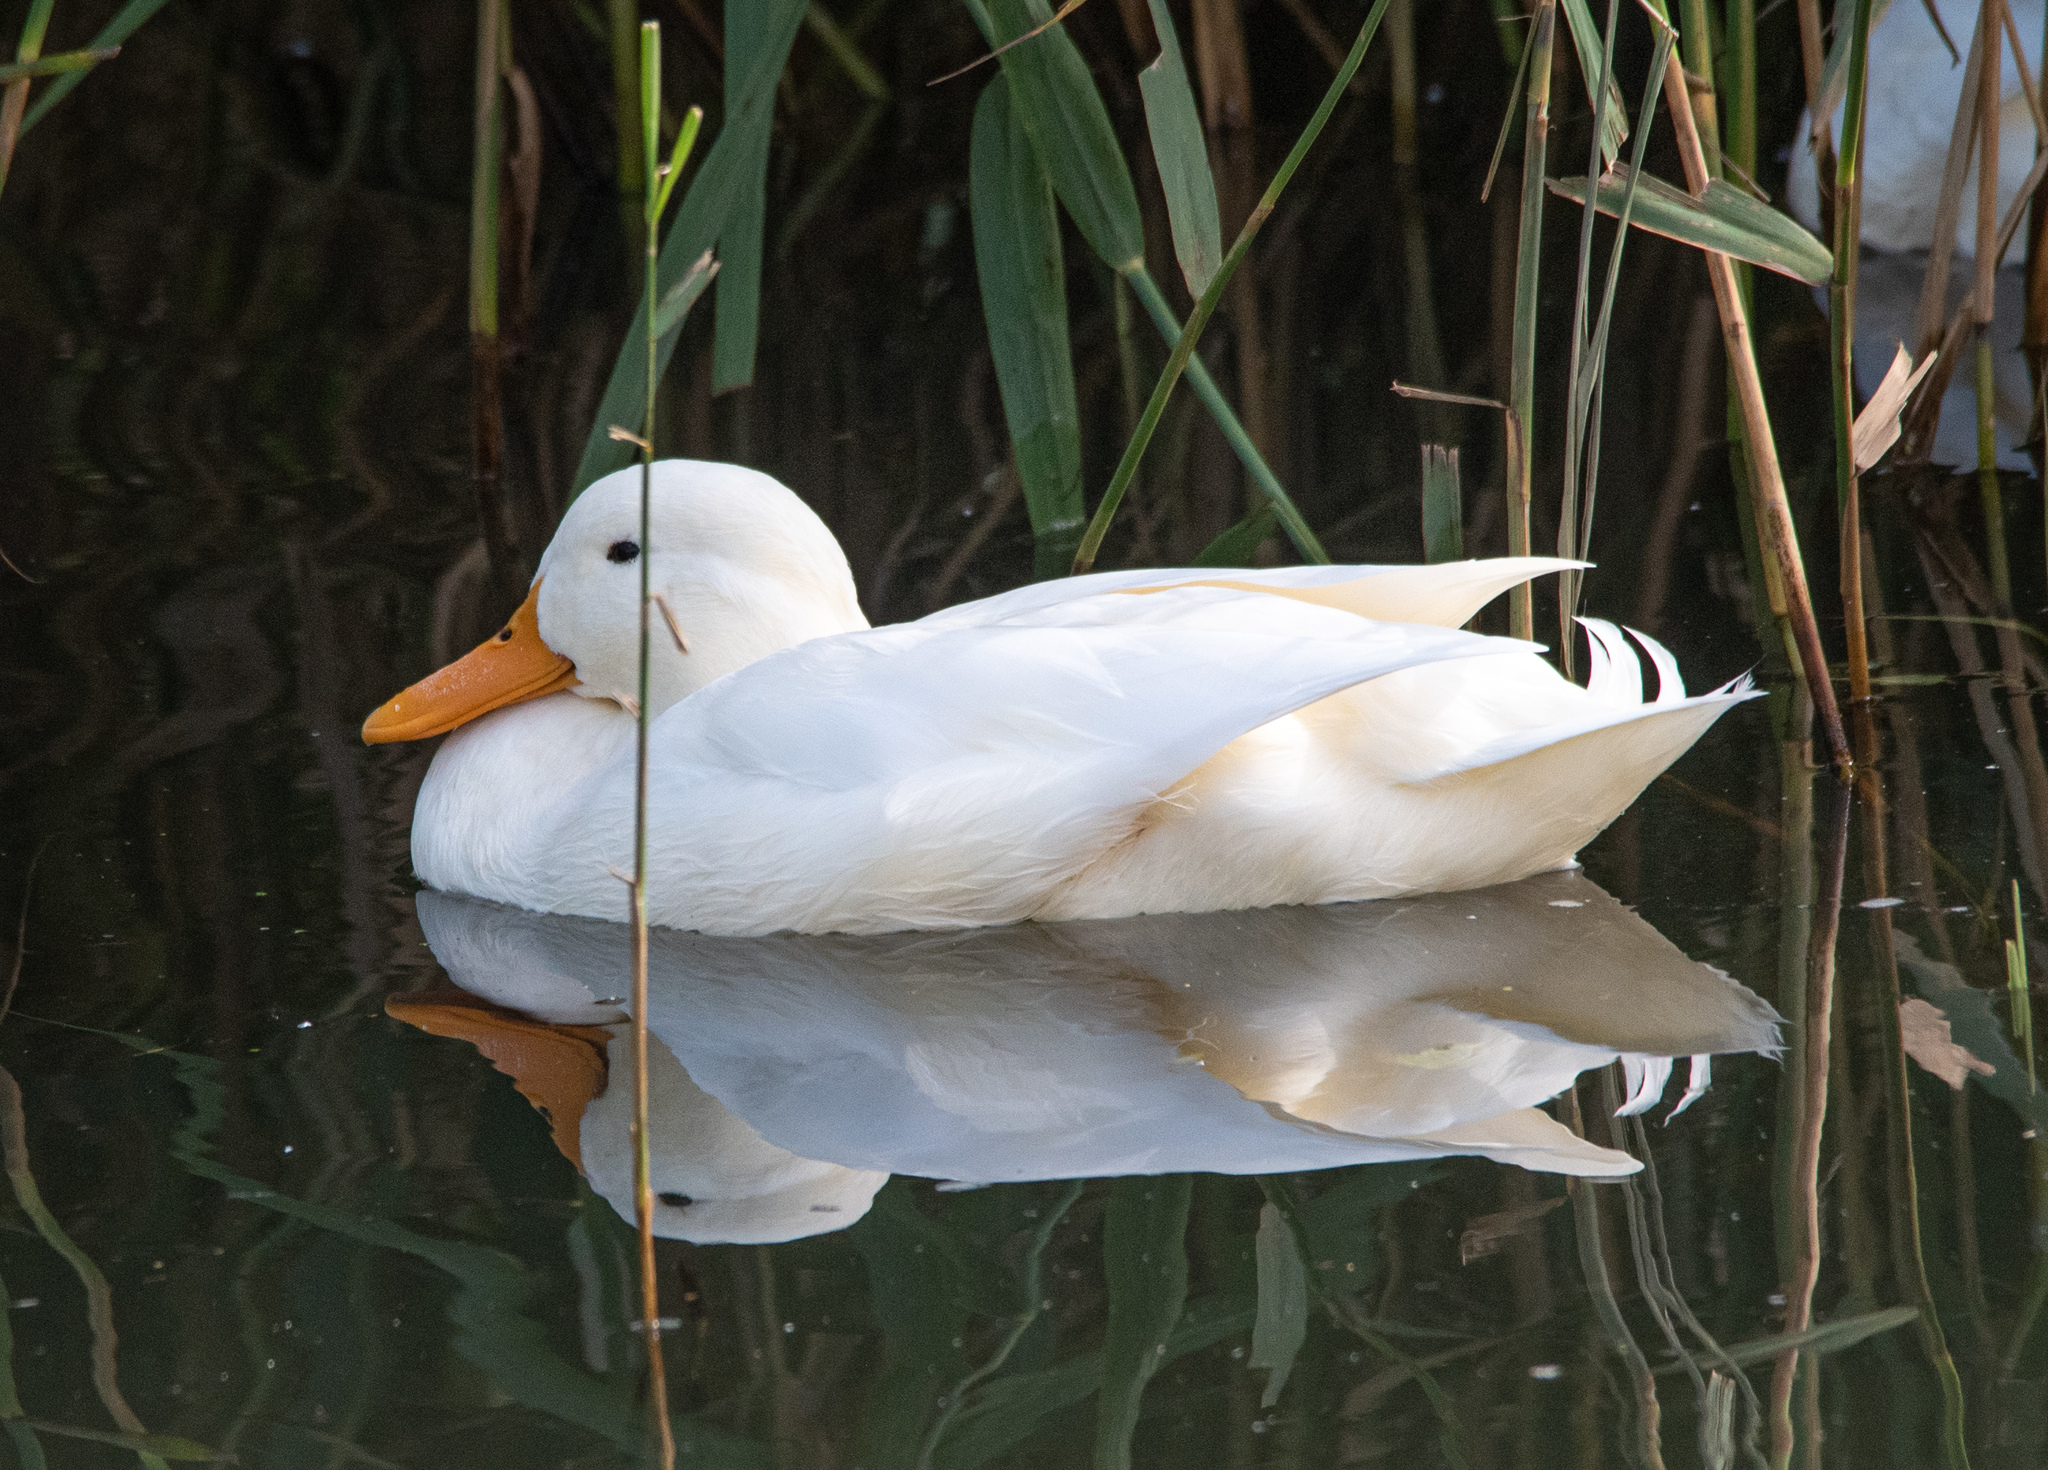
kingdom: Animalia
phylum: Chordata
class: Aves
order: Anseriformes
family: Anatidae
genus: Anas
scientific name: Anas platyrhynchos
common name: Mallard
